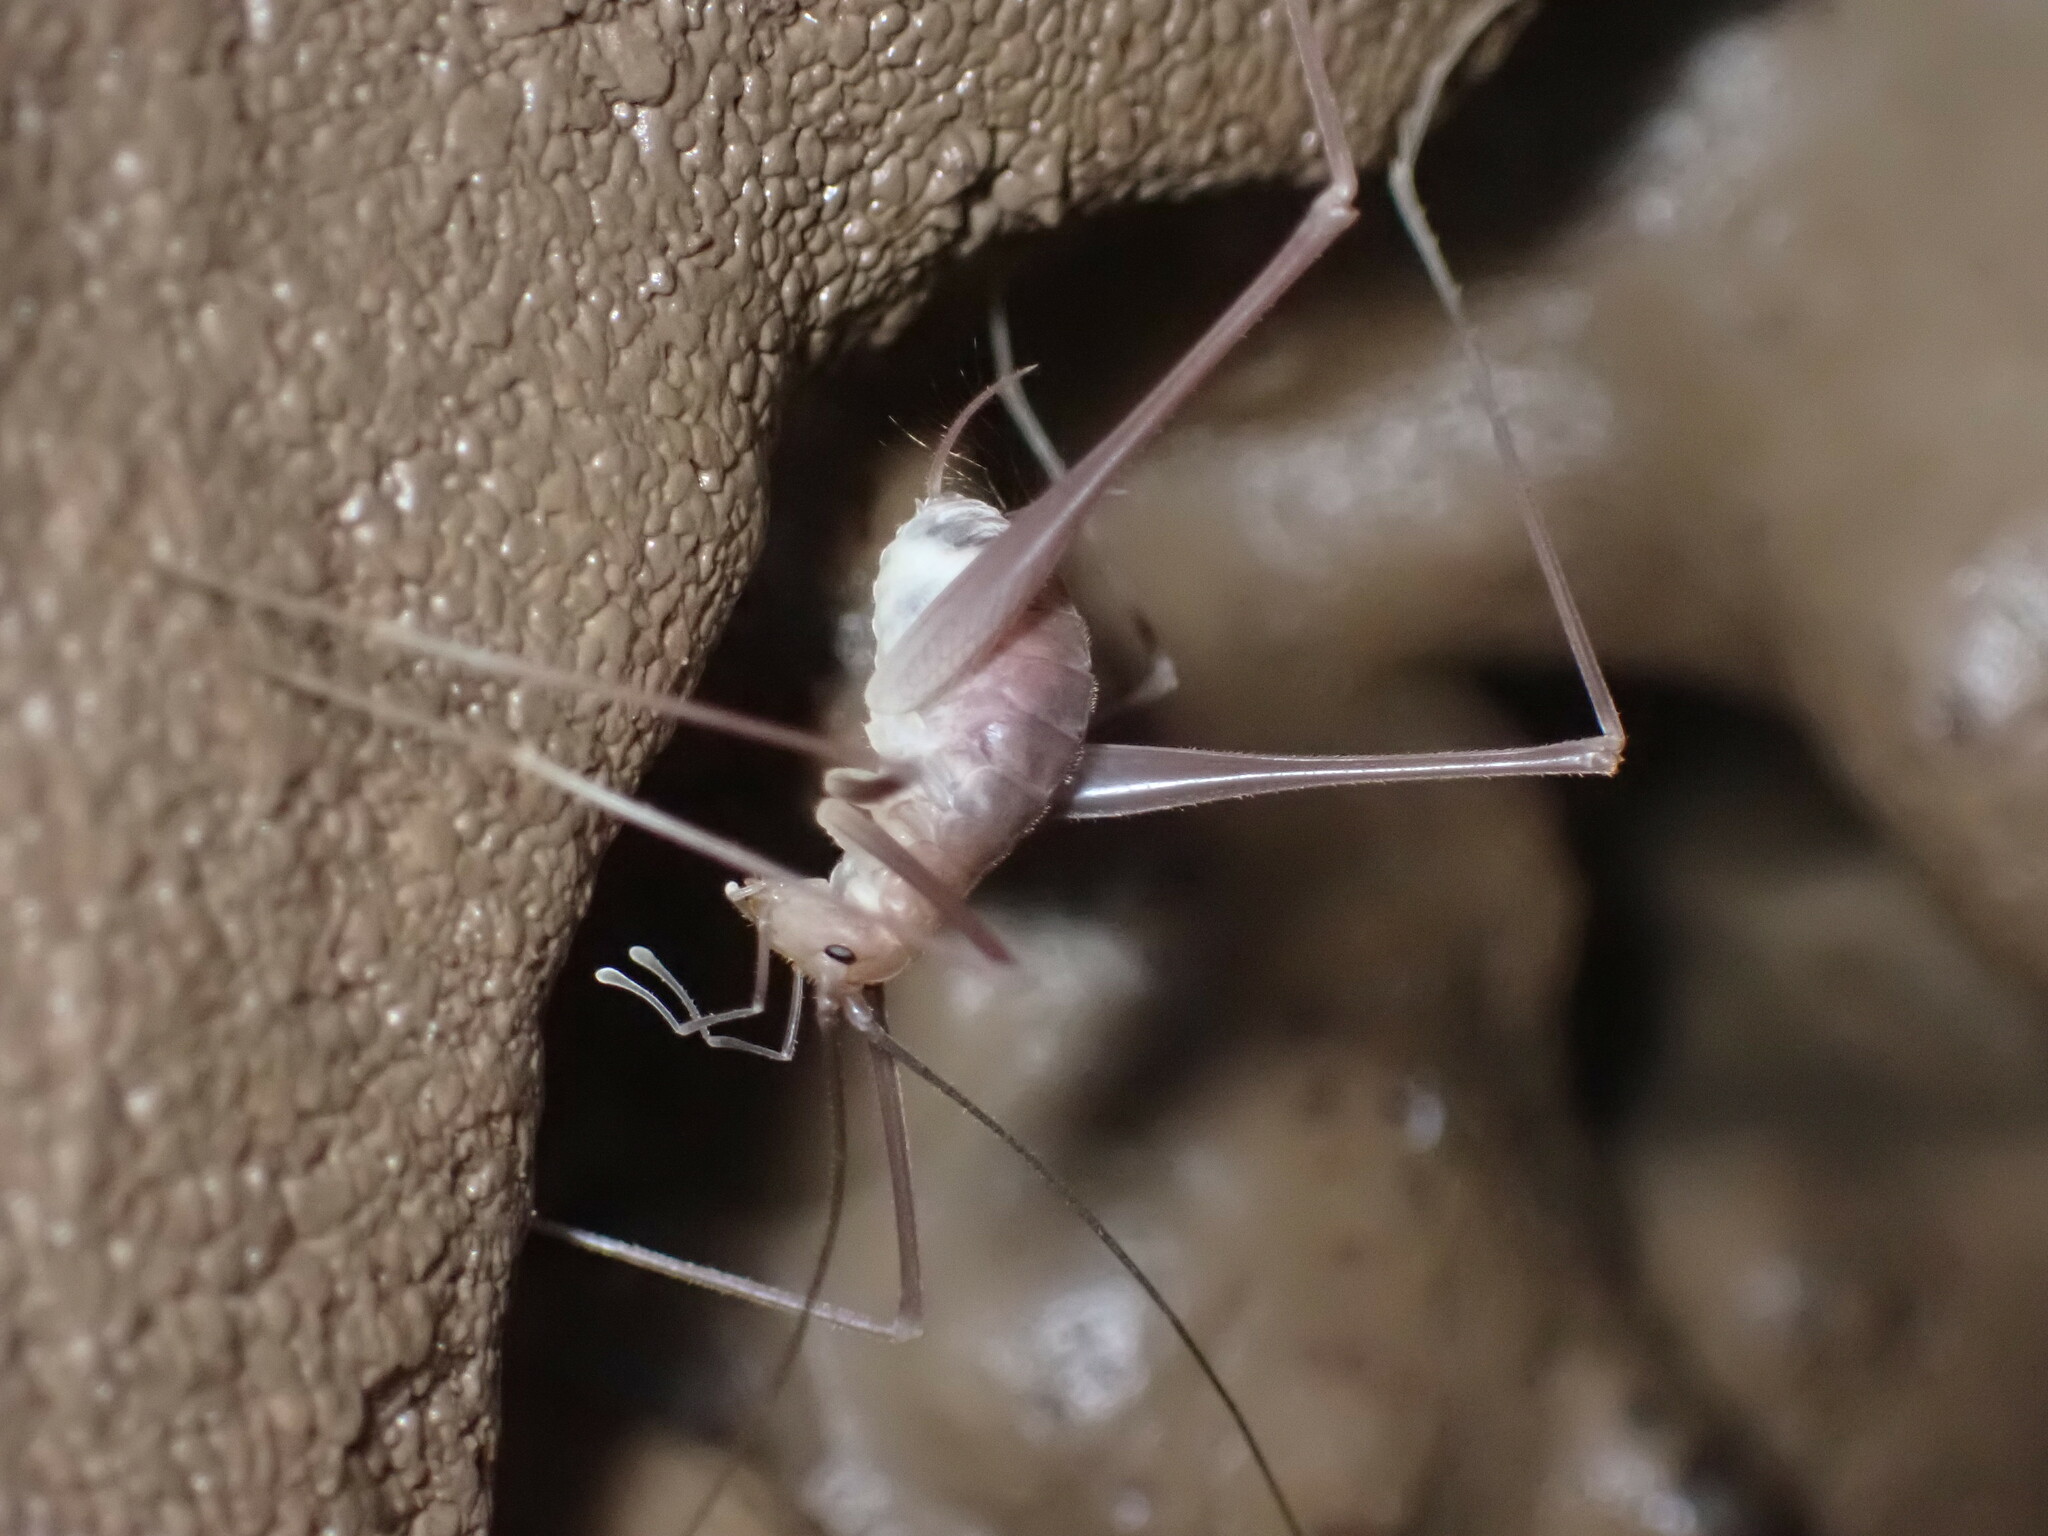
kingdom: Animalia
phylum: Arthropoda
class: Insecta
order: Orthoptera
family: Rhaphidophoridae
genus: Hadenoecus
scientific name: Hadenoecus jonesi
